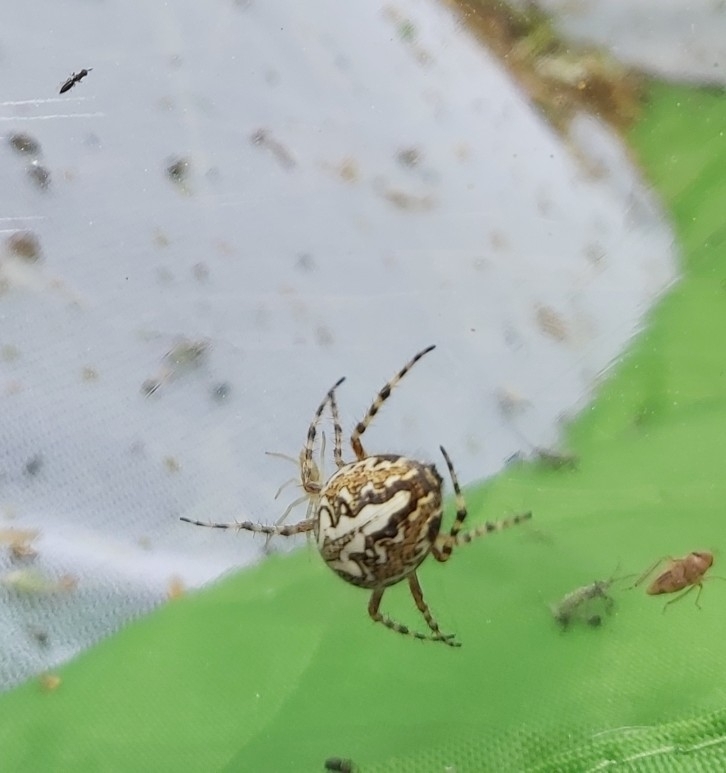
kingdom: Animalia
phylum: Arthropoda
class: Arachnida
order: Araneae
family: Araneidae
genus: Aculepeira
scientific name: Aculepeira ceropegia
